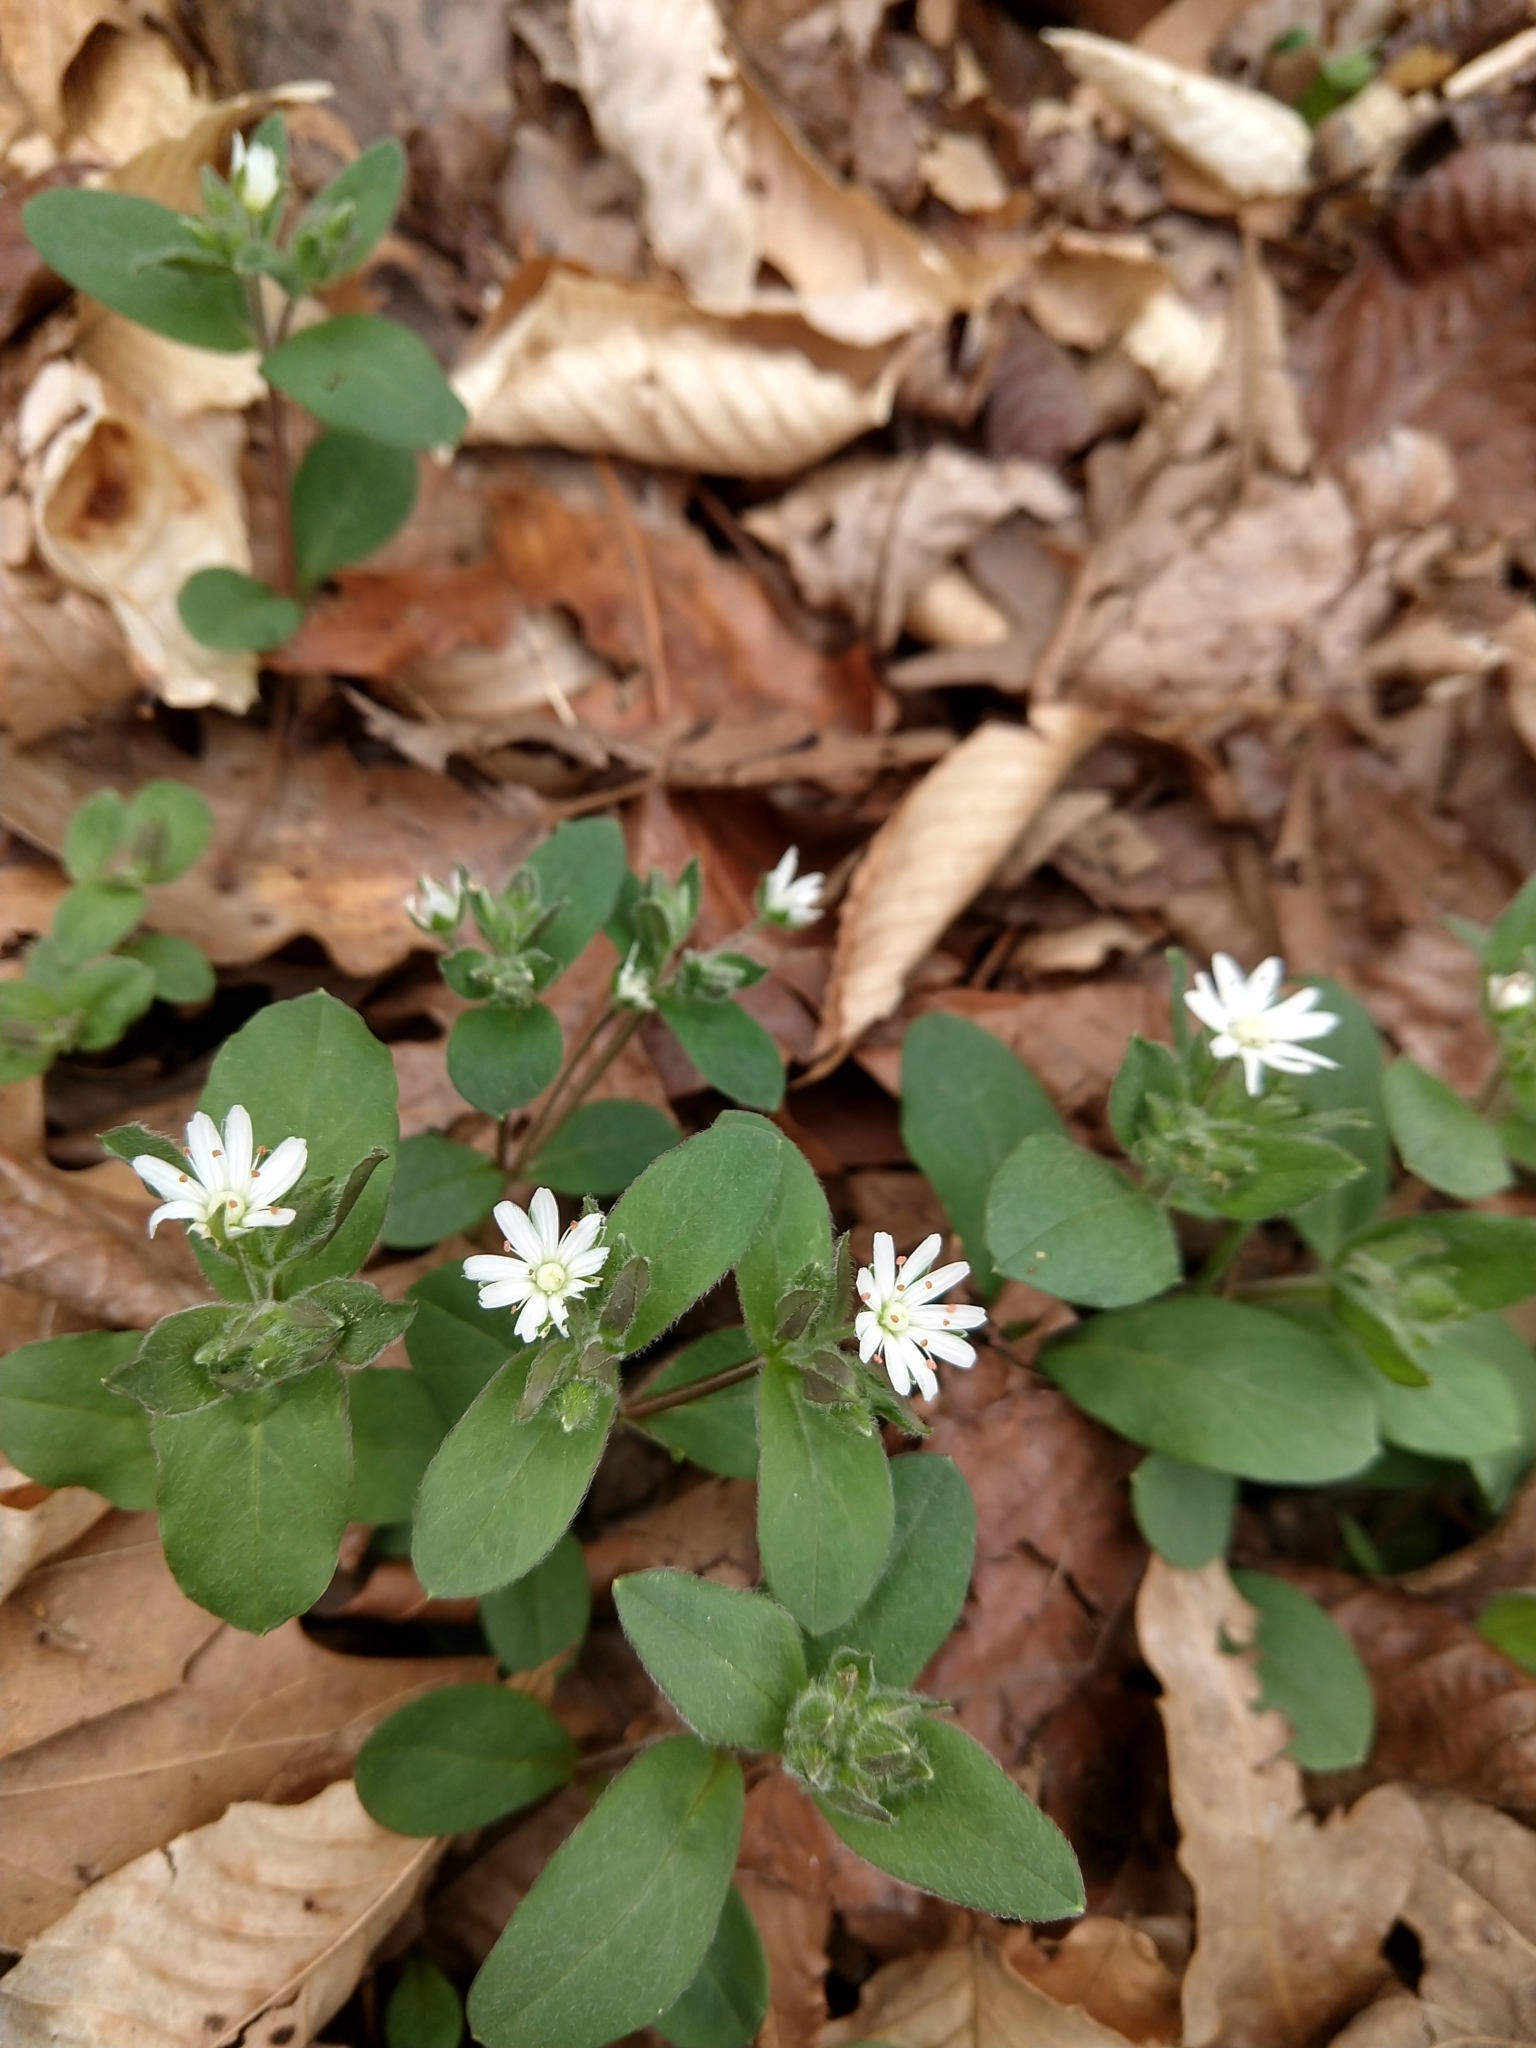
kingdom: Plantae
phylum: Tracheophyta
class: Magnoliopsida
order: Caryophyllales
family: Caryophyllaceae
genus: Stellaria
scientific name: Stellaria pubera
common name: Star chickweed
